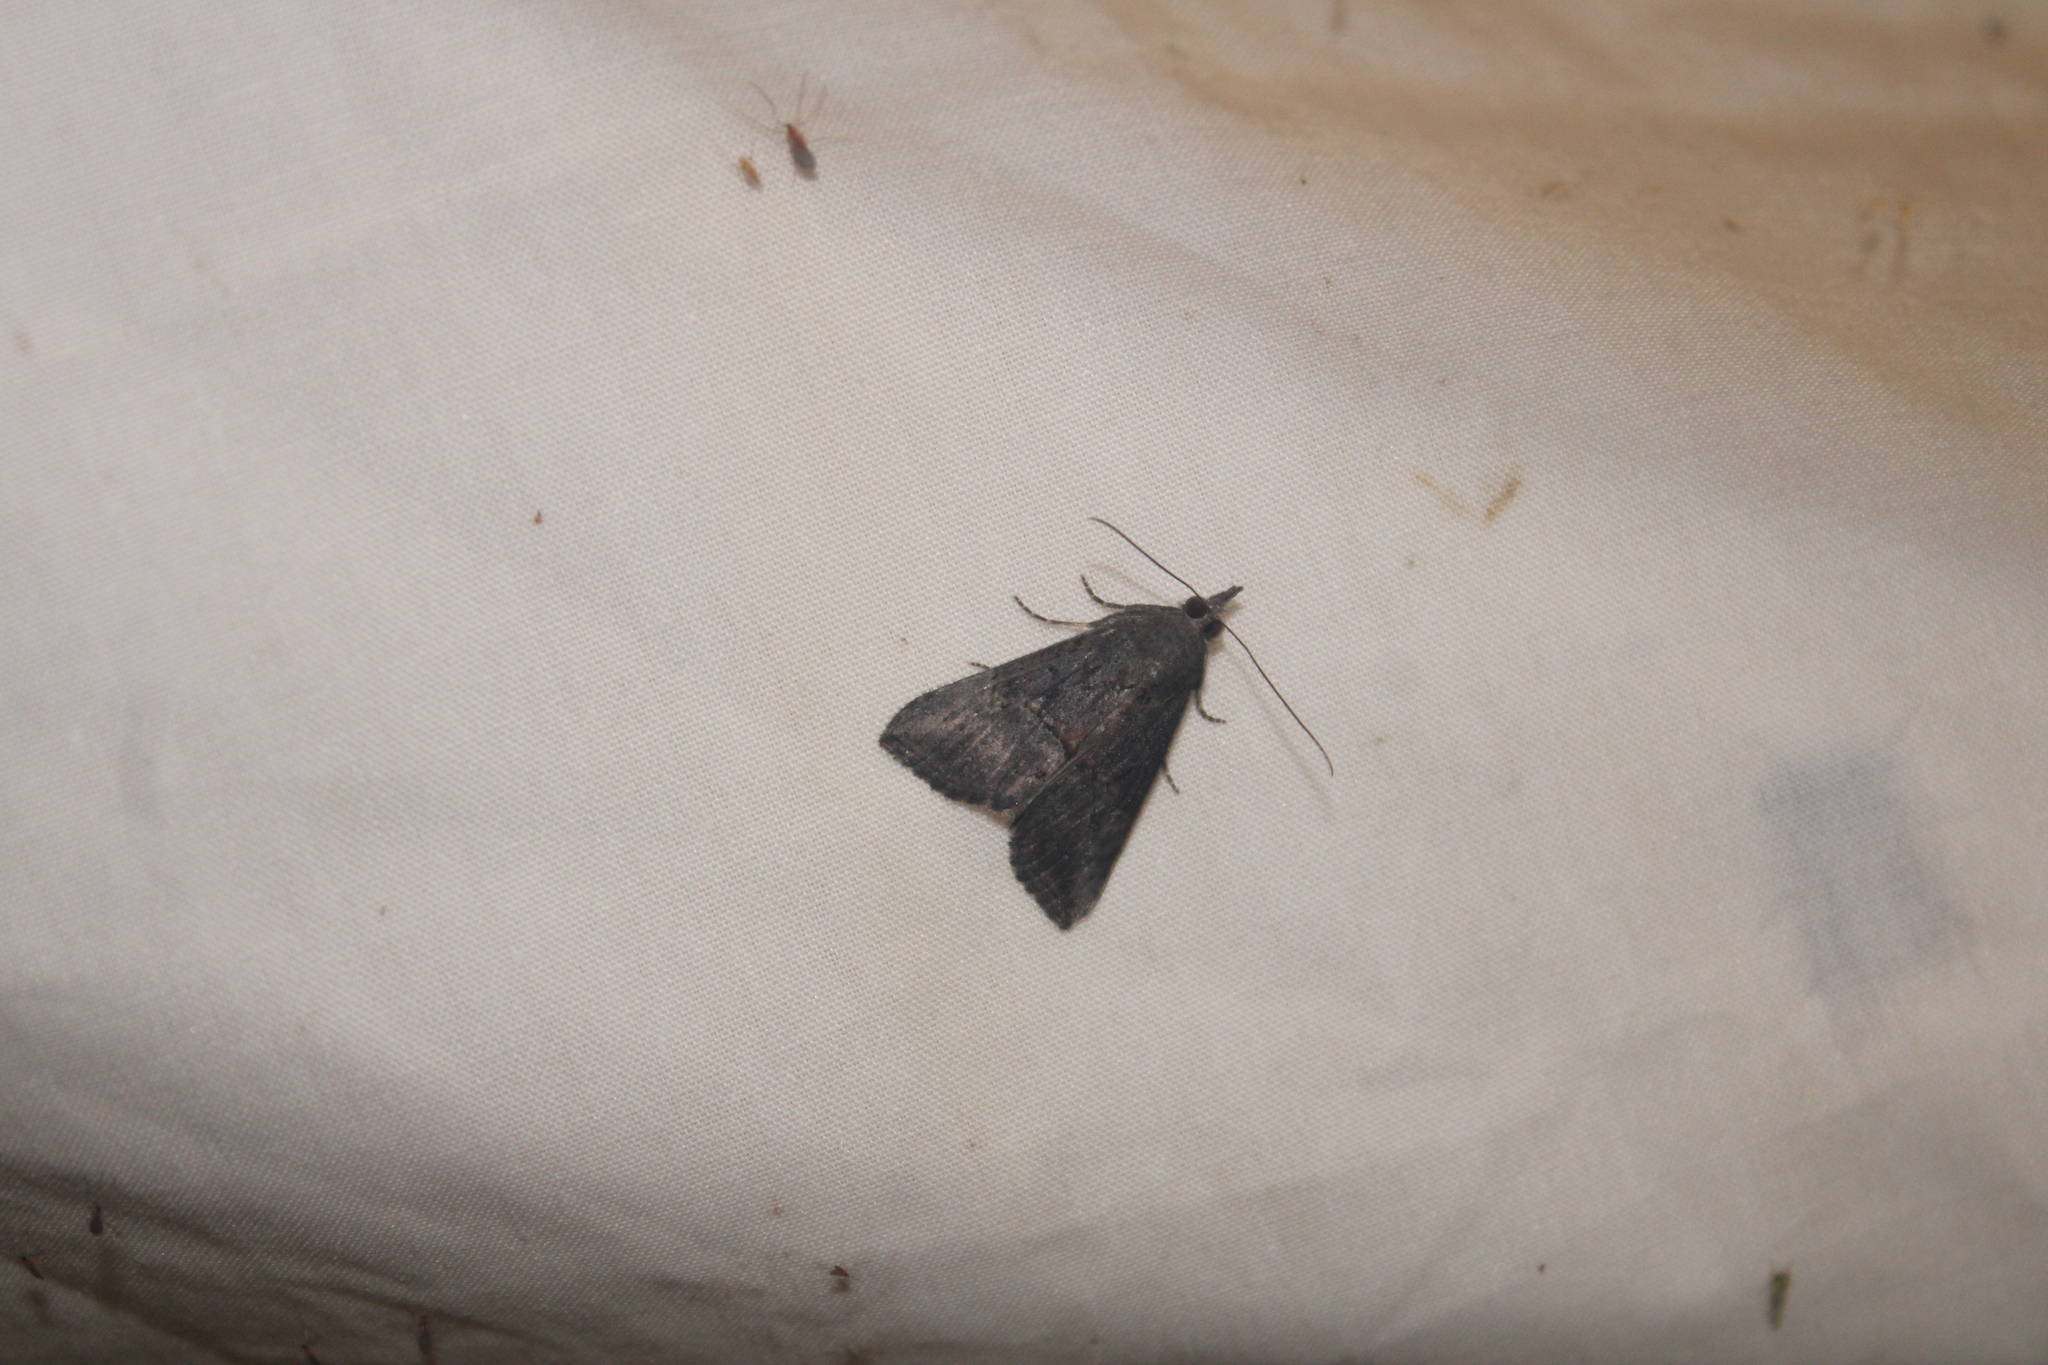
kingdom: Animalia
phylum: Arthropoda
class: Insecta
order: Lepidoptera
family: Erebidae
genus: Hypena
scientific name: Hypena scabra
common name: Green cloverworm
